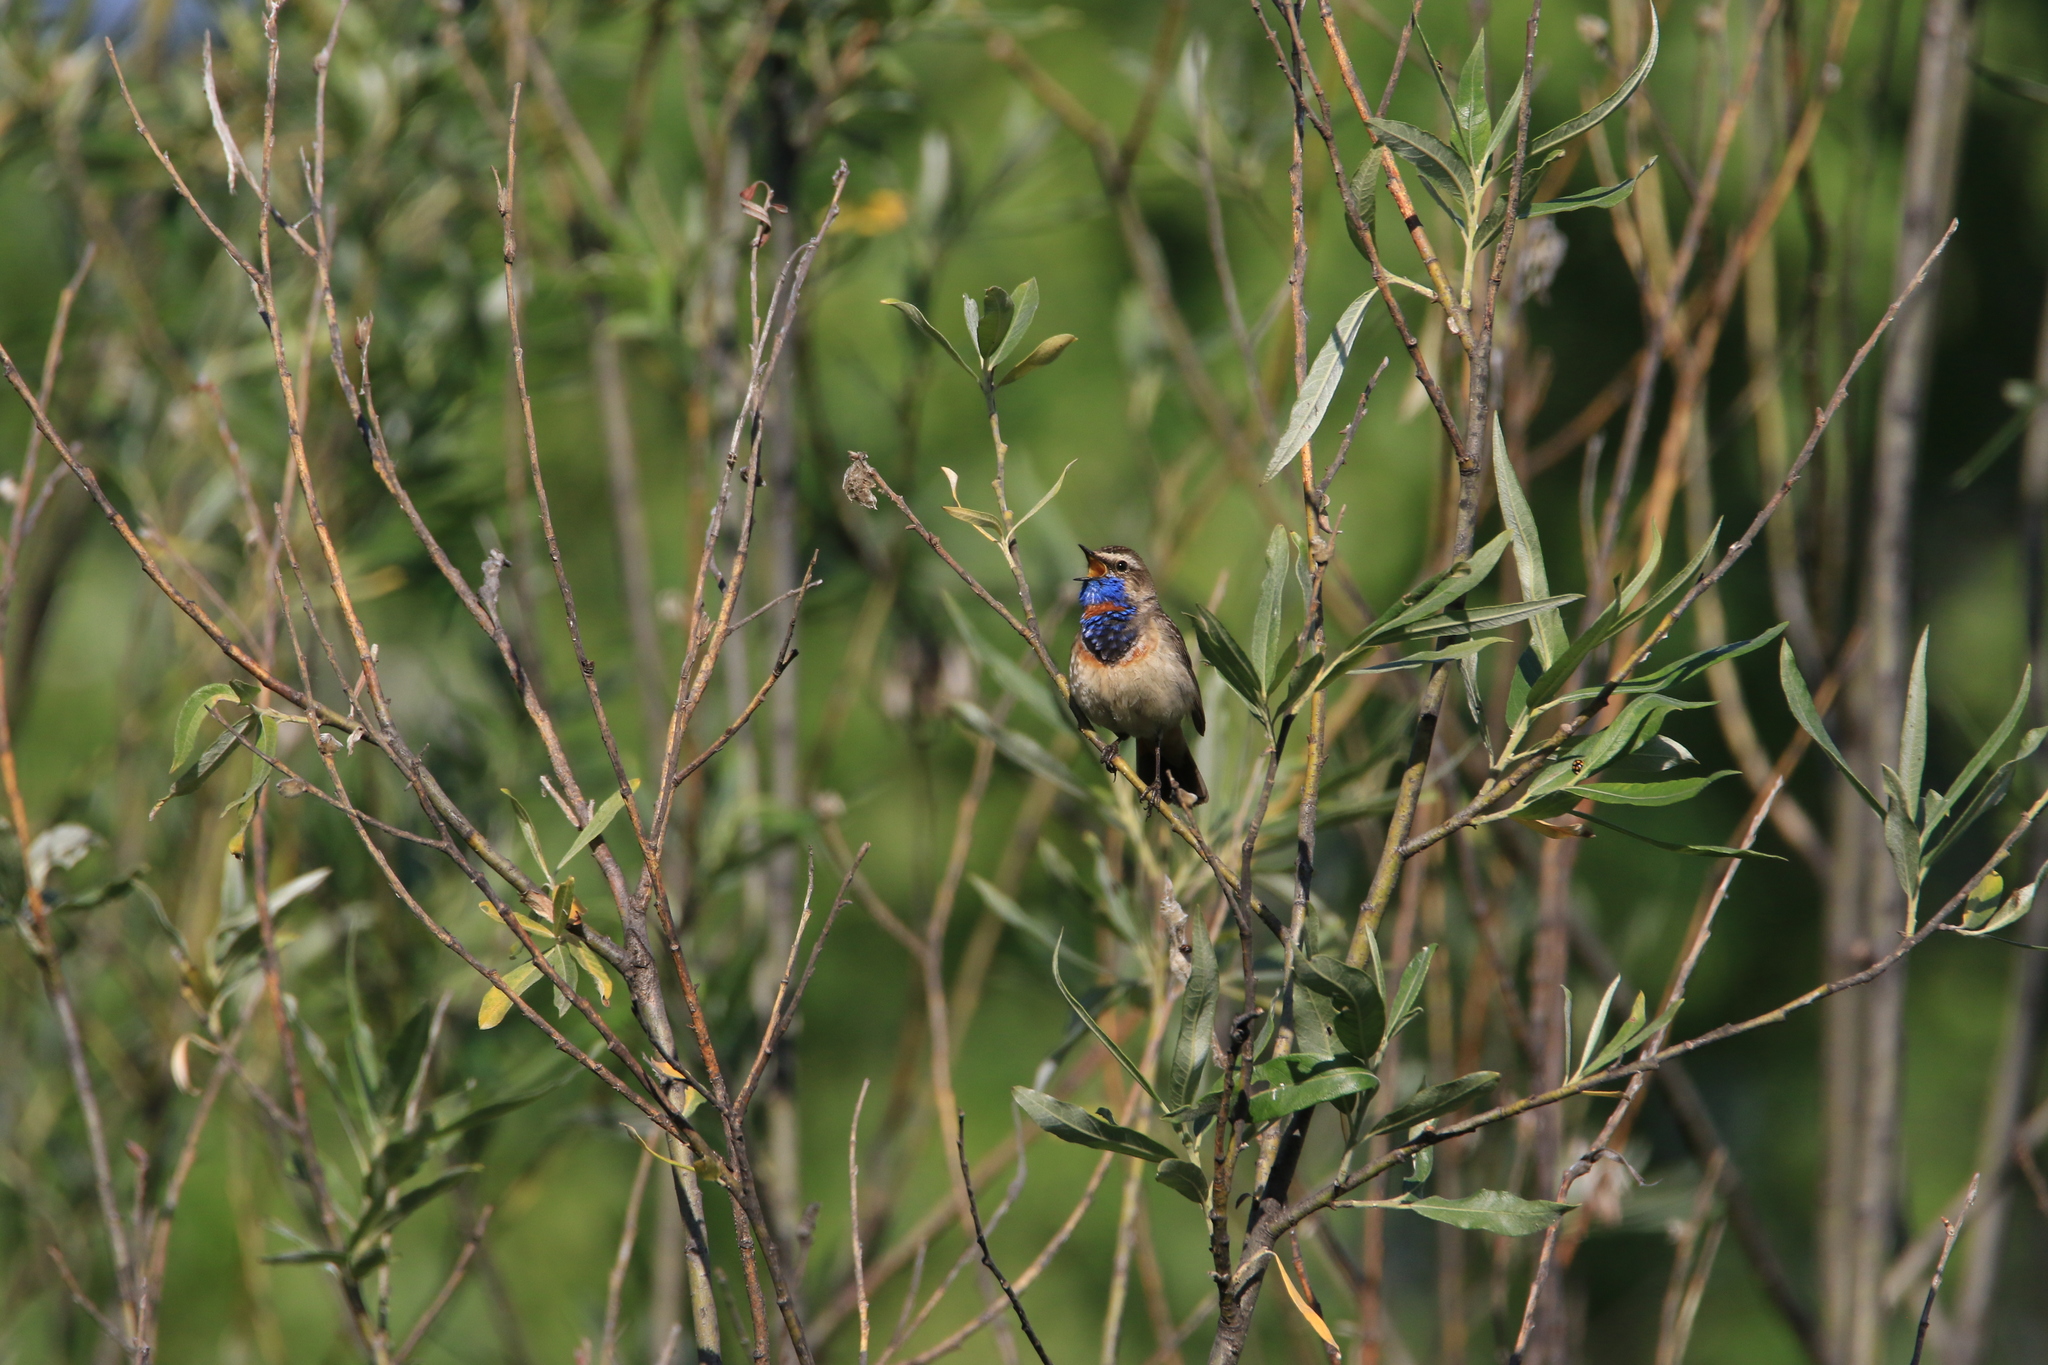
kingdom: Animalia
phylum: Chordata
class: Aves
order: Passeriformes
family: Muscicapidae
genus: Luscinia
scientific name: Luscinia svecica
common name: Bluethroat
